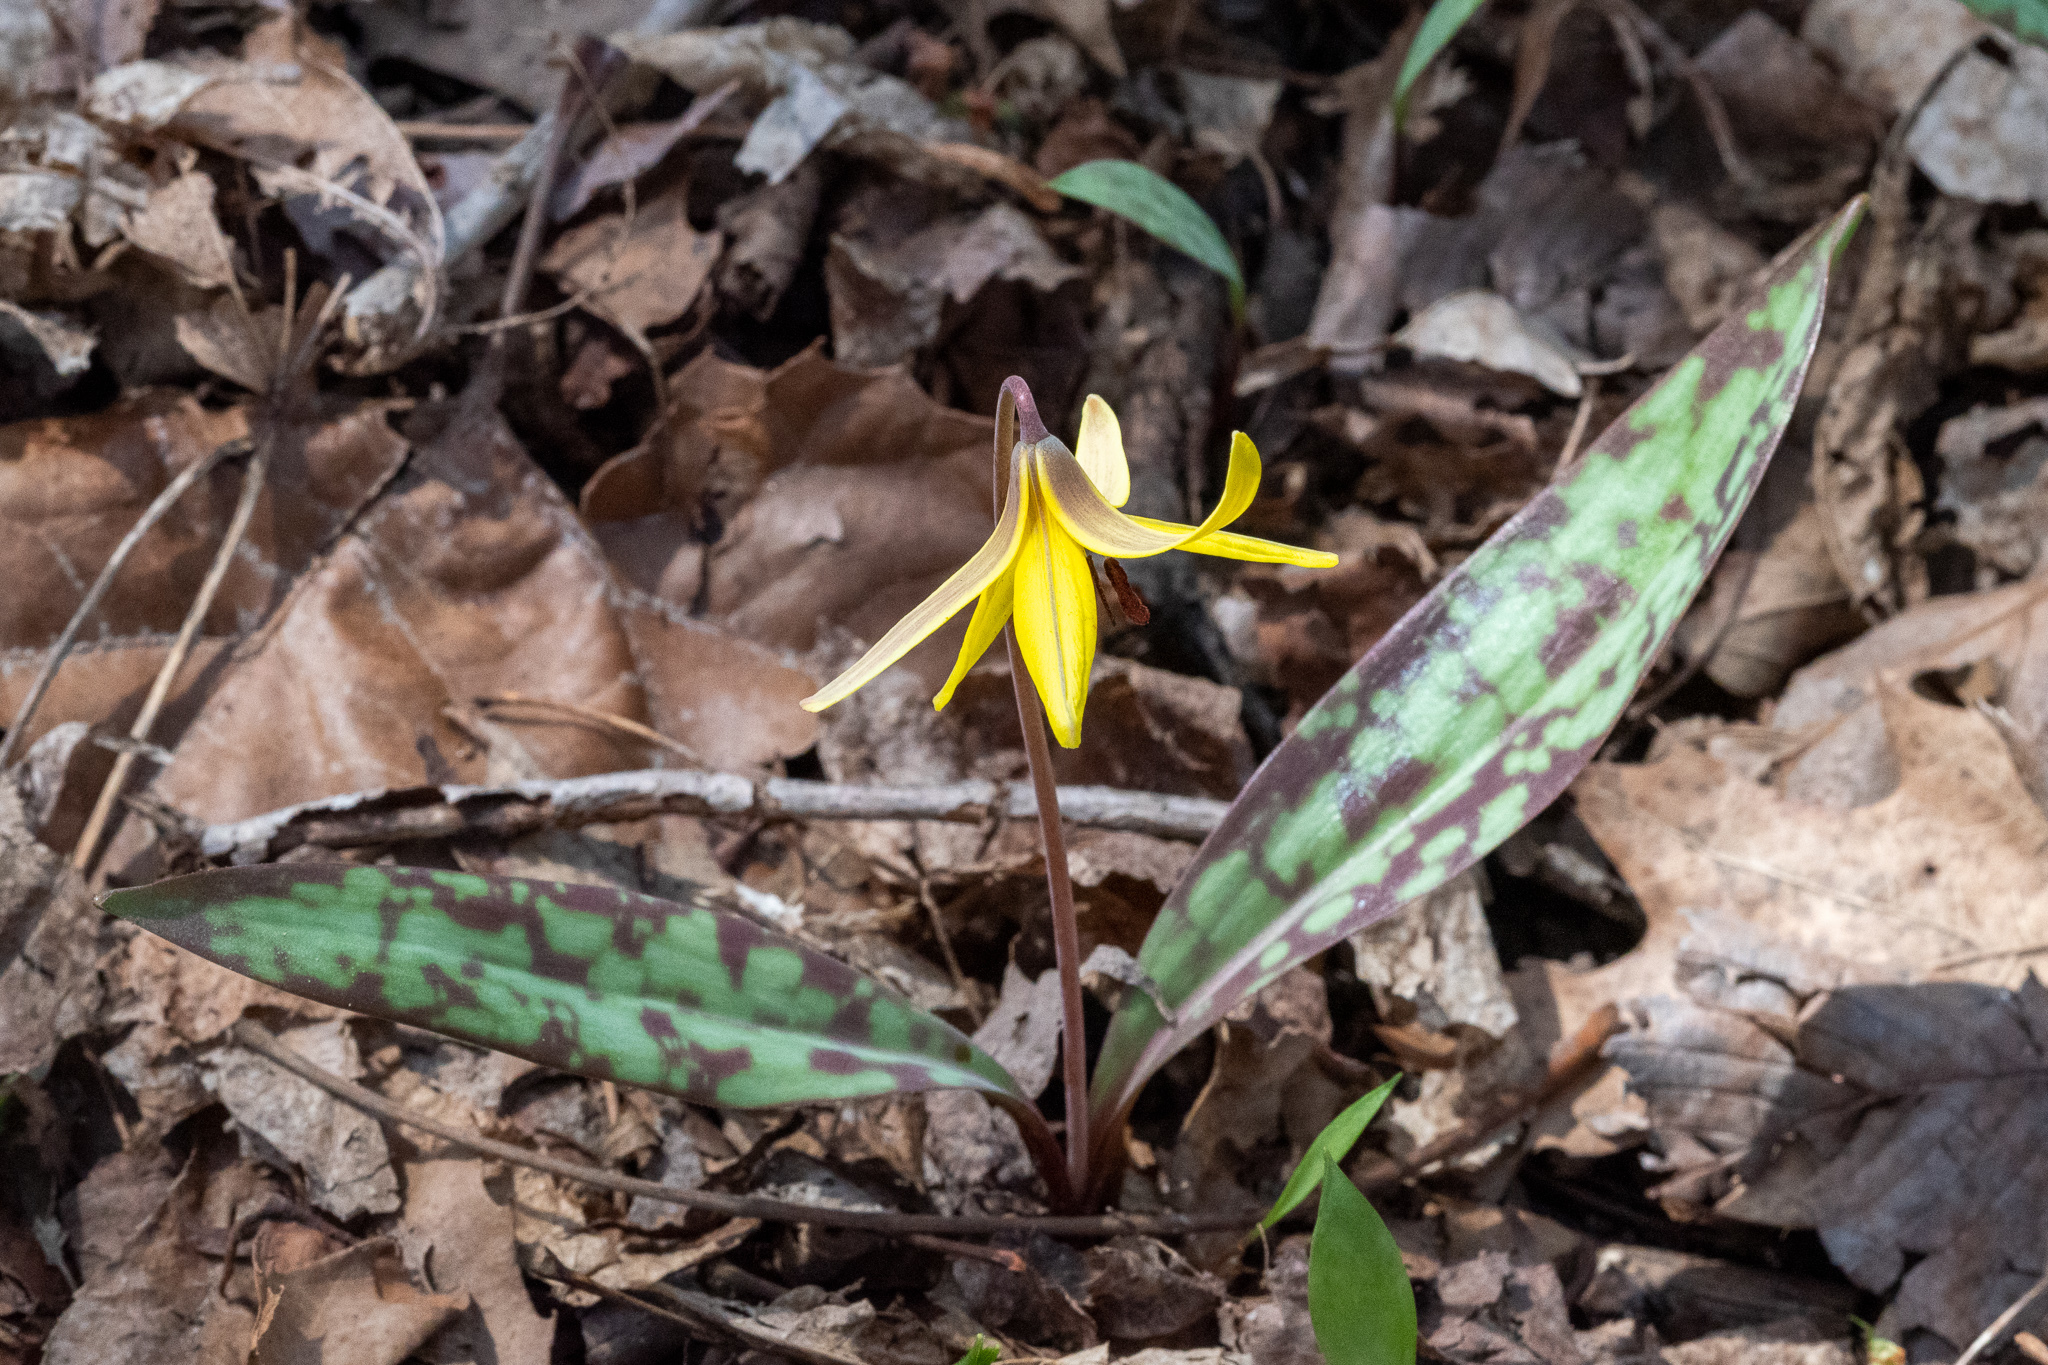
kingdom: Plantae
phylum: Tracheophyta
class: Liliopsida
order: Liliales
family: Liliaceae
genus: Erythronium
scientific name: Erythronium americanum
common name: Yellow adder's-tongue
